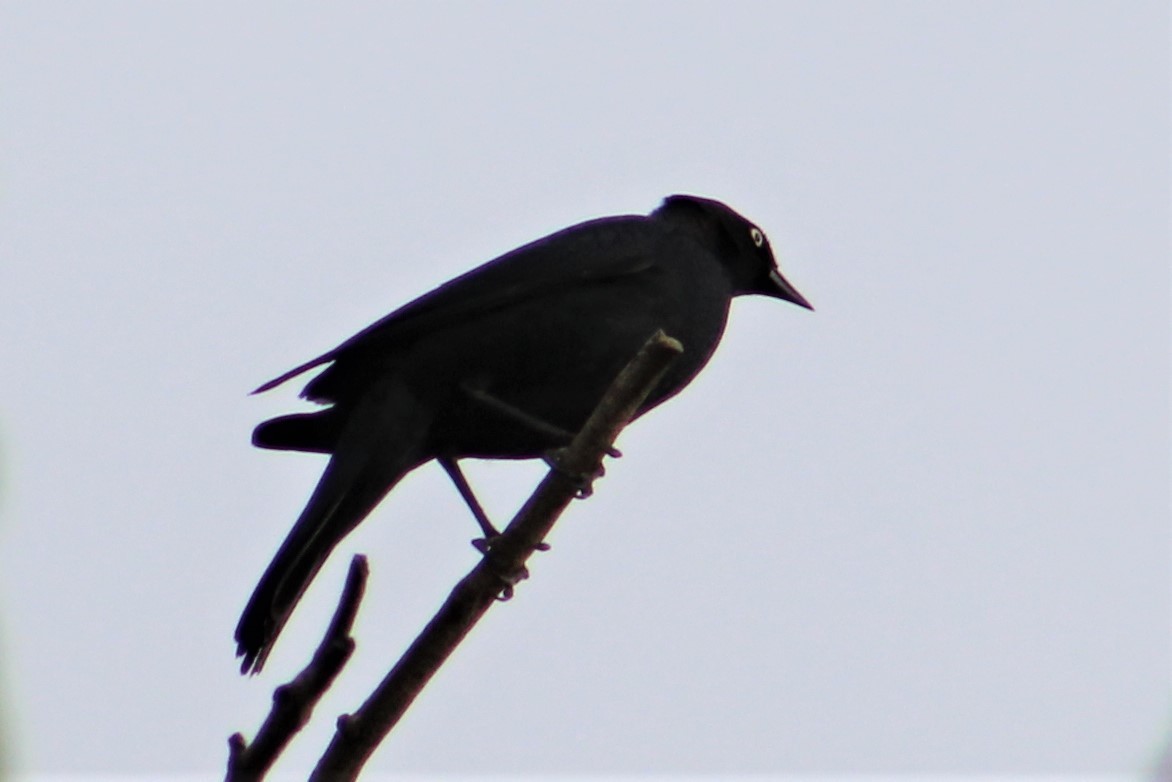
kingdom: Animalia
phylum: Chordata
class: Aves
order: Passeriformes
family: Icteridae
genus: Euphagus
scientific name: Euphagus cyanocephalus
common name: Brewer's blackbird
